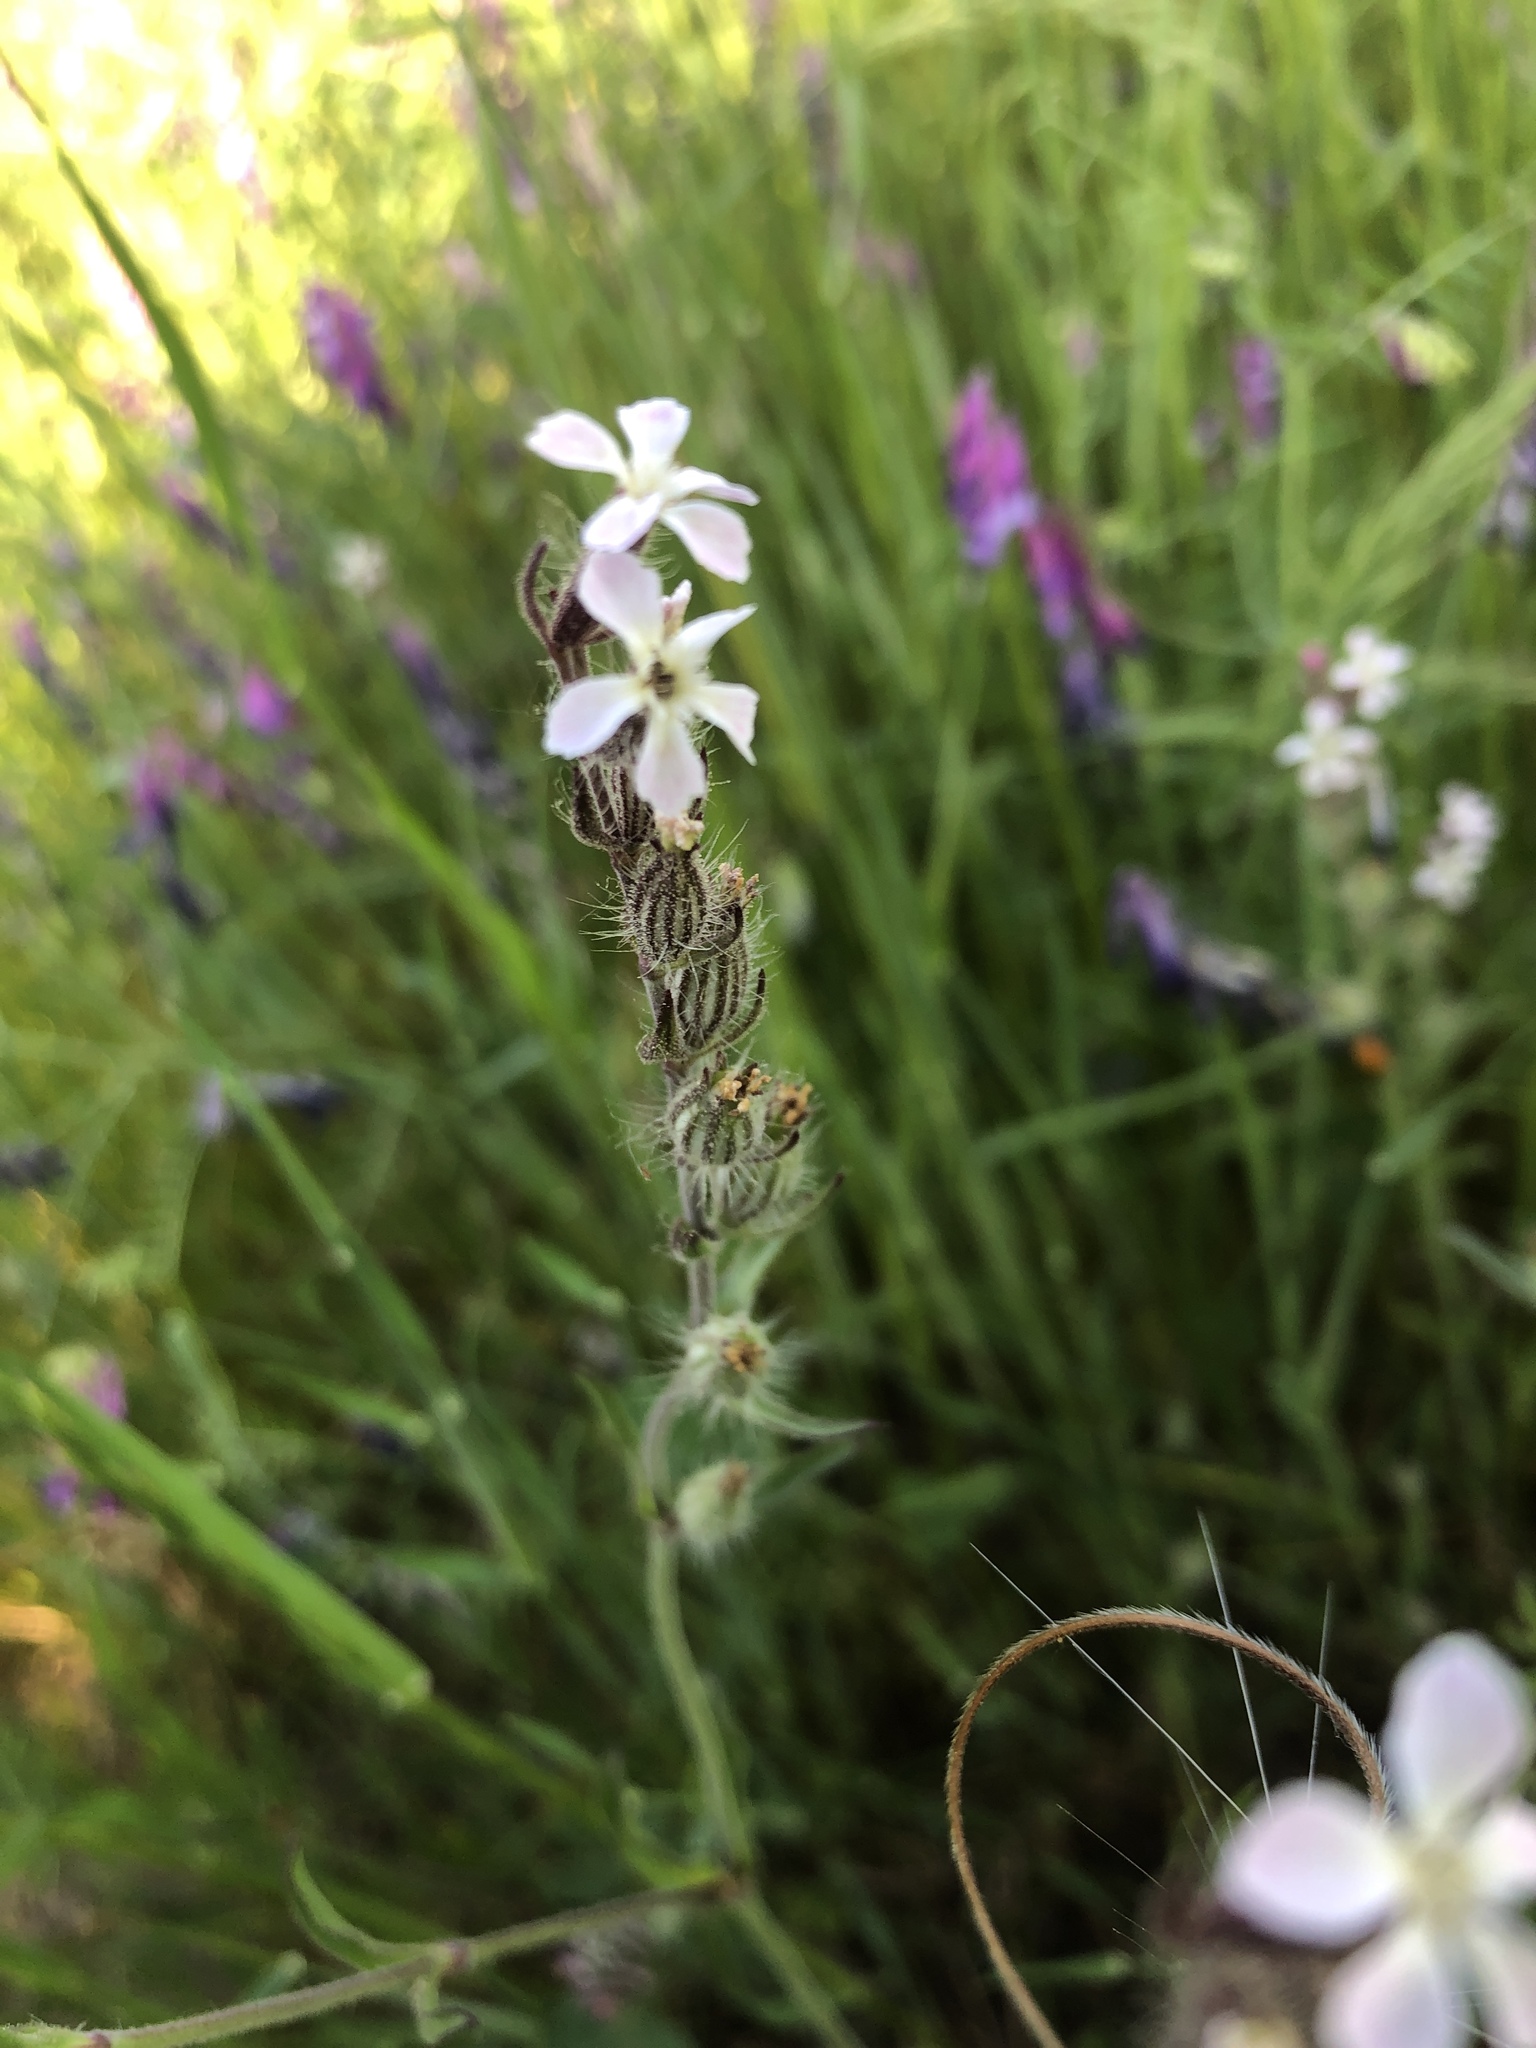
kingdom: Plantae
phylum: Tracheophyta
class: Magnoliopsida
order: Caryophyllales
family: Caryophyllaceae
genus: Silene
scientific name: Silene gallica
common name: Small-flowered catchfly
